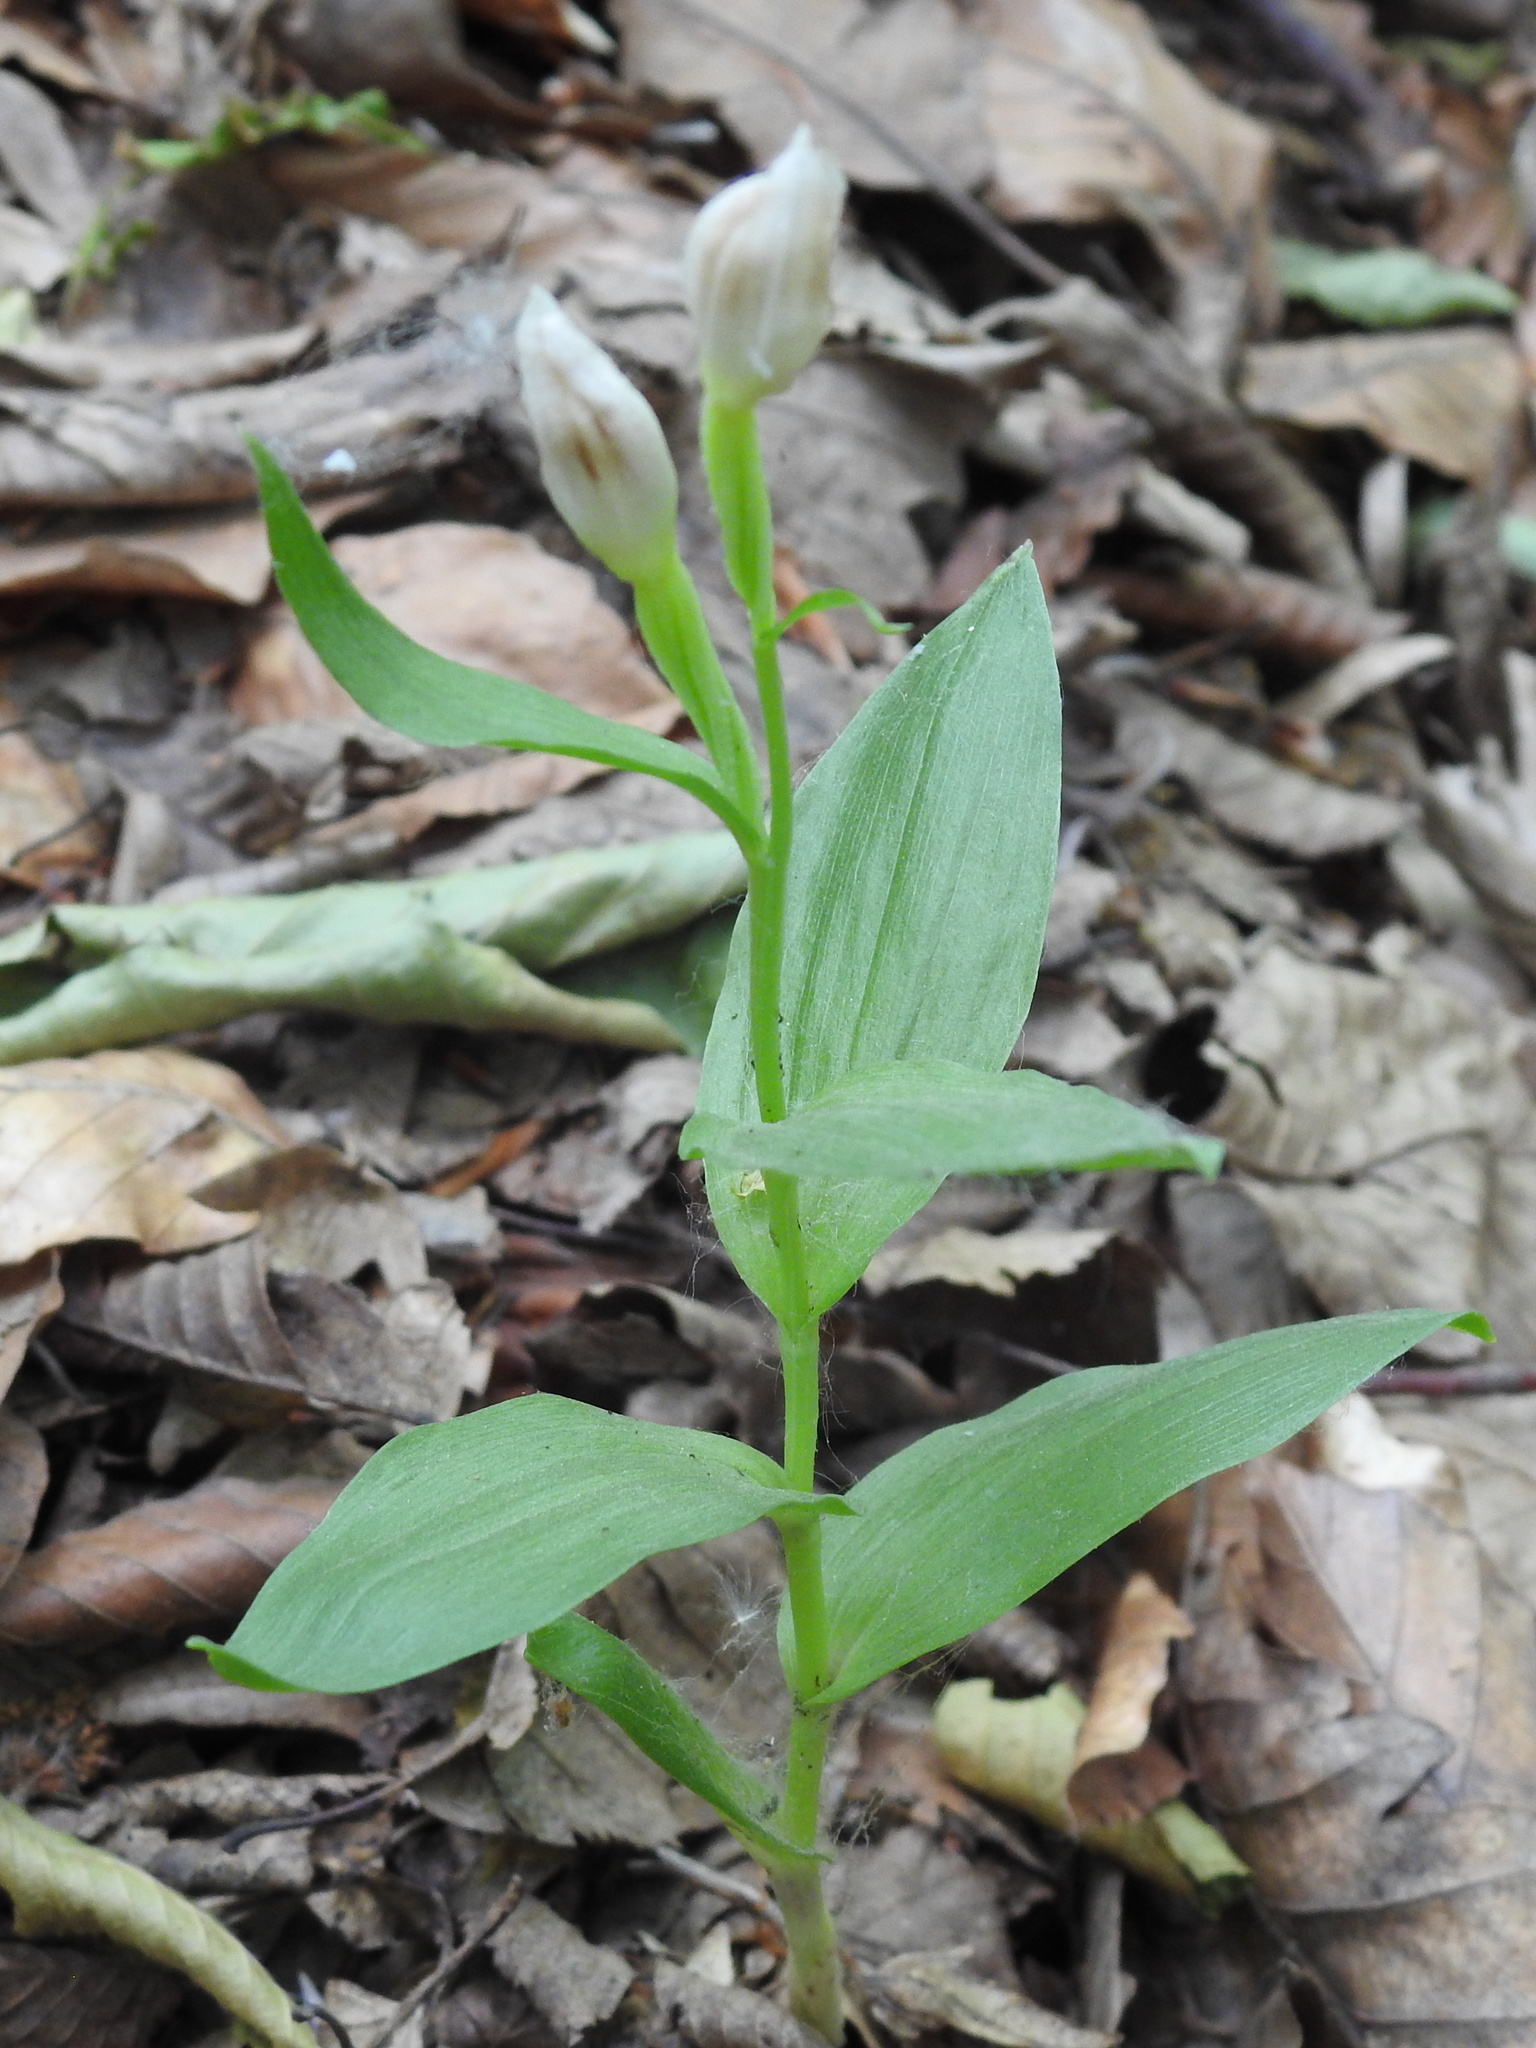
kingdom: Plantae
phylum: Tracheophyta
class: Liliopsida
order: Asparagales
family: Orchidaceae
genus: Cephalanthera
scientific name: Cephalanthera damasonium
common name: White helleborine
